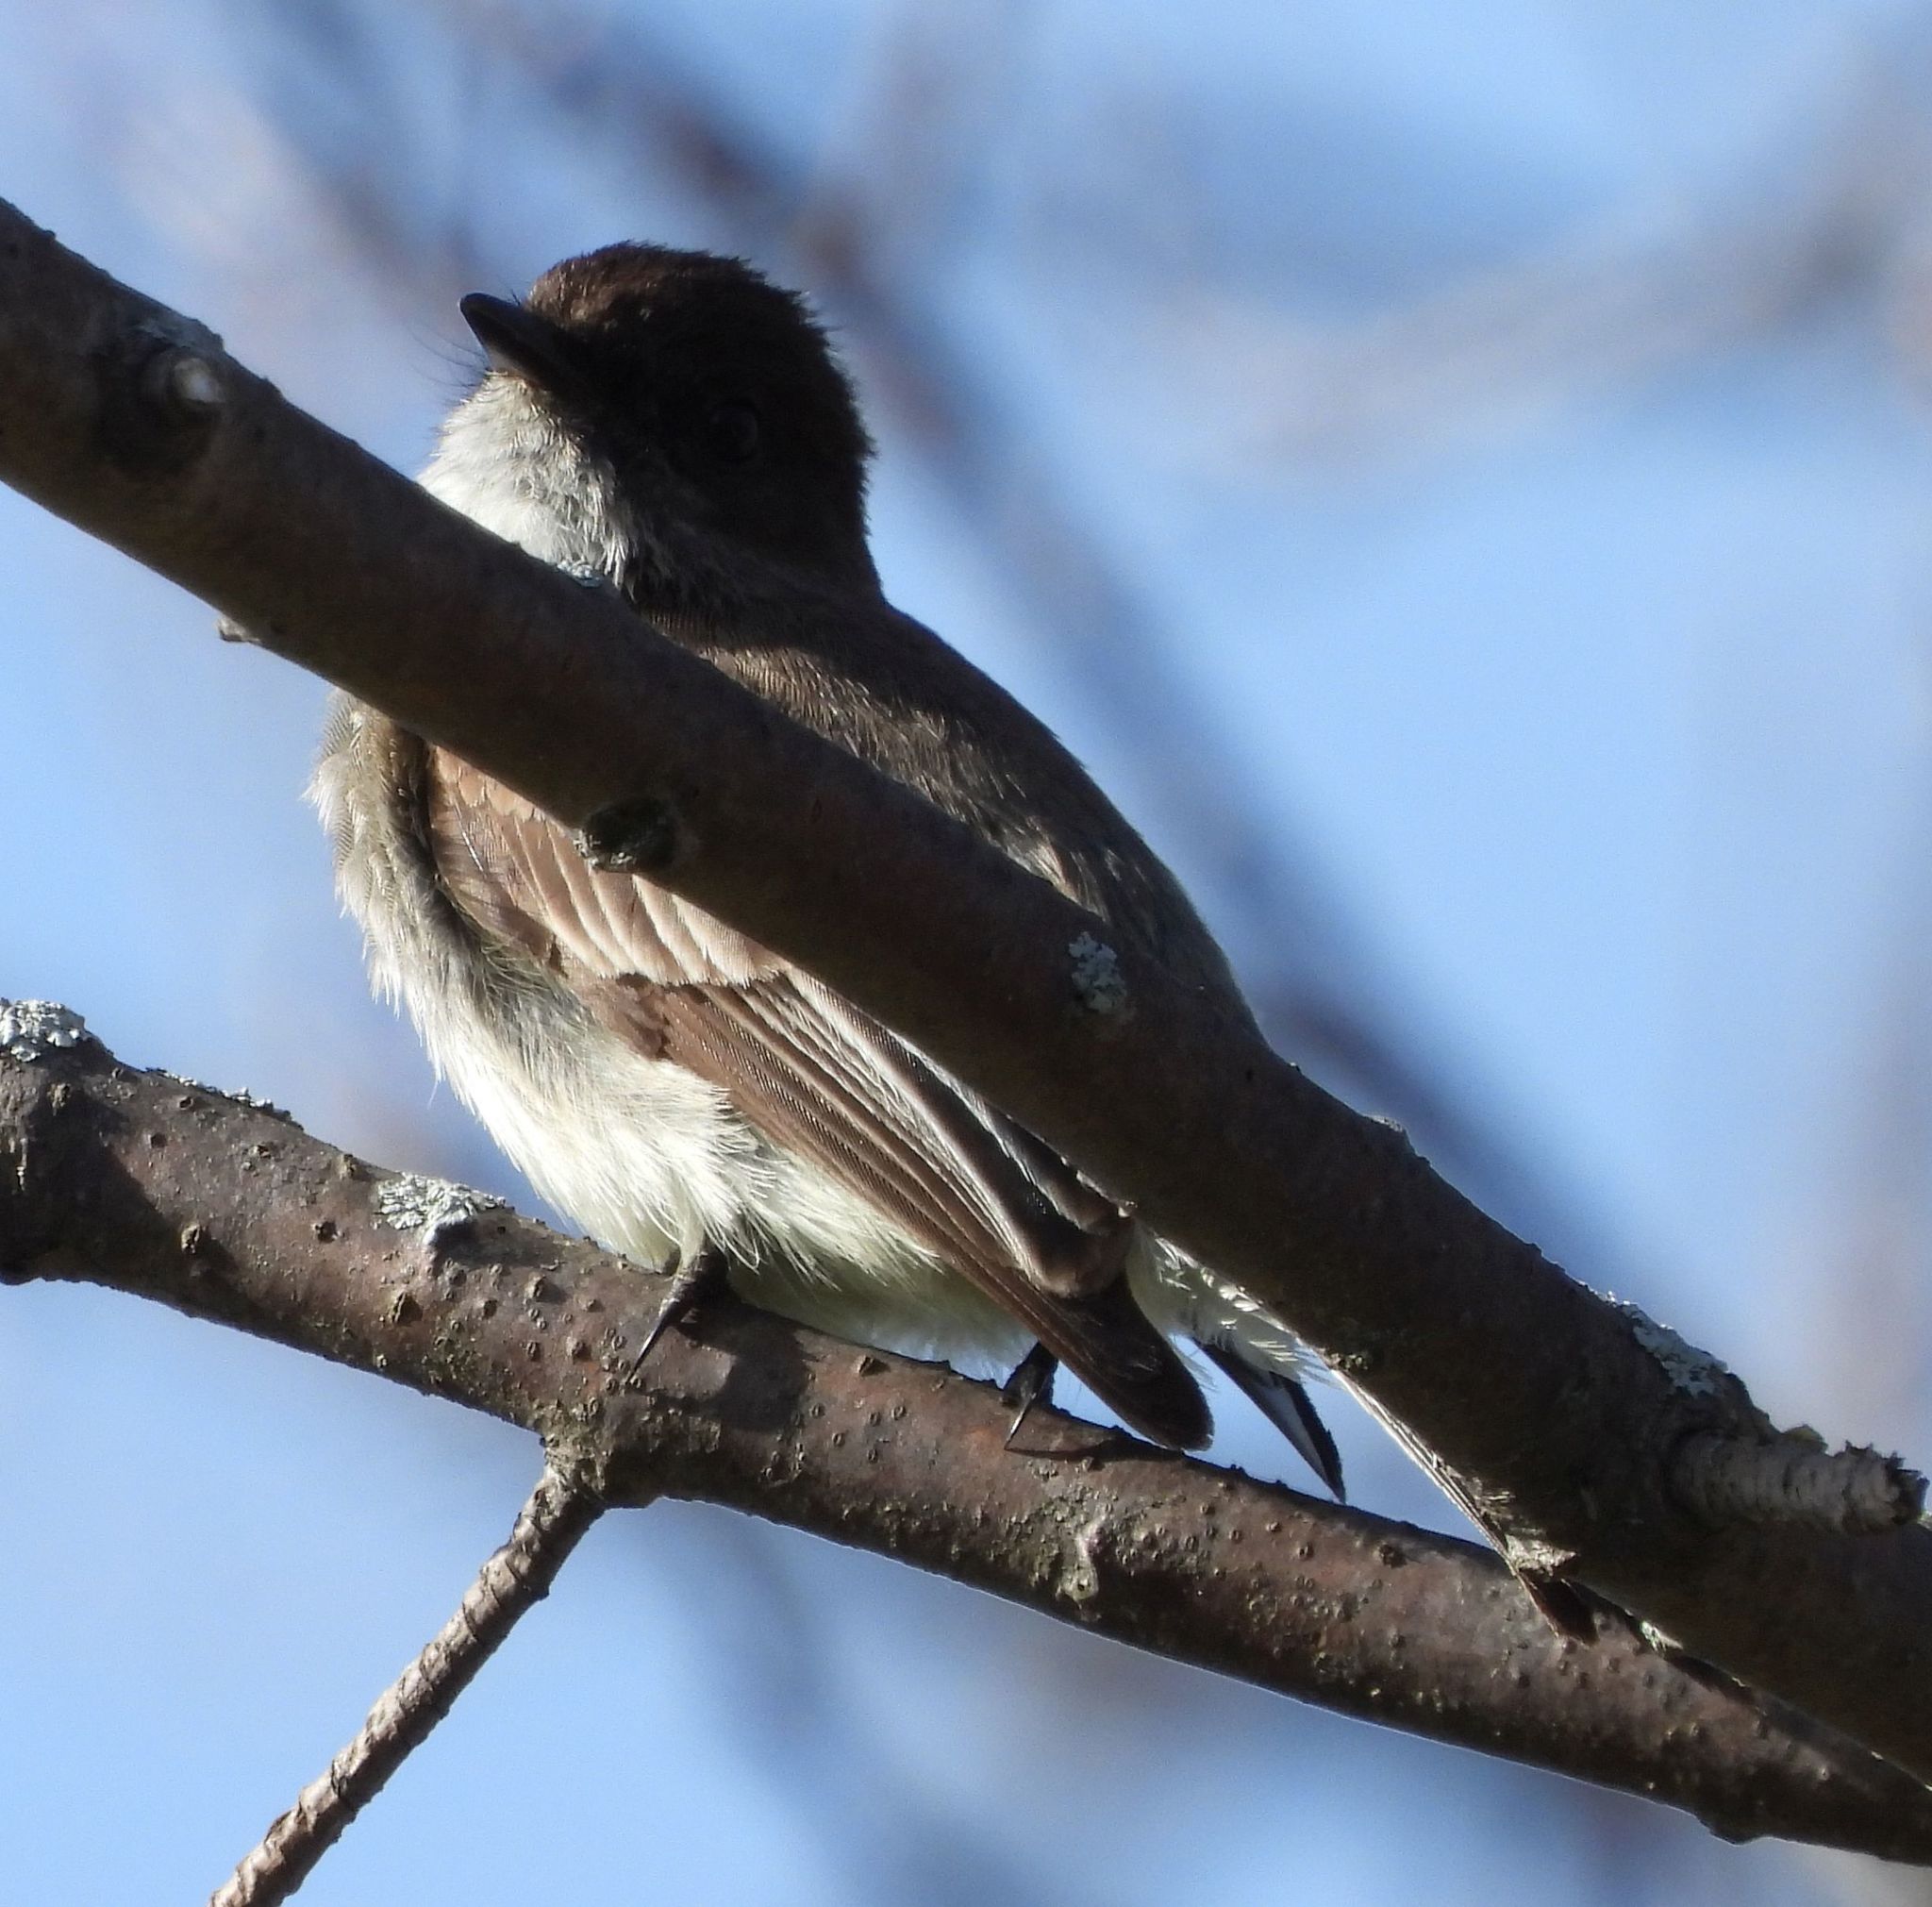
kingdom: Animalia
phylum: Chordata
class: Aves
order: Passeriformes
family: Tyrannidae
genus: Sayornis
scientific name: Sayornis phoebe
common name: Eastern phoebe
